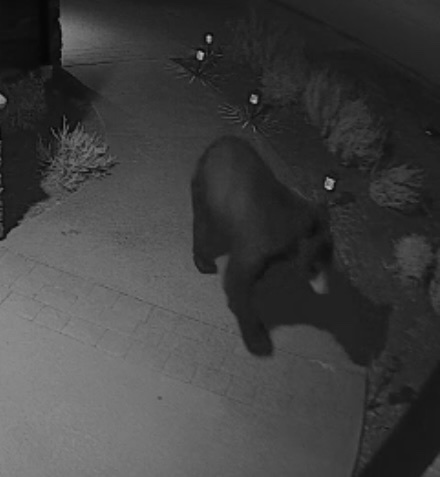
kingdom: Animalia
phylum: Chordata
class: Mammalia
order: Carnivora
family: Ursidae
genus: Ursus
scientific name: Ursus americanus
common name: American black bear
